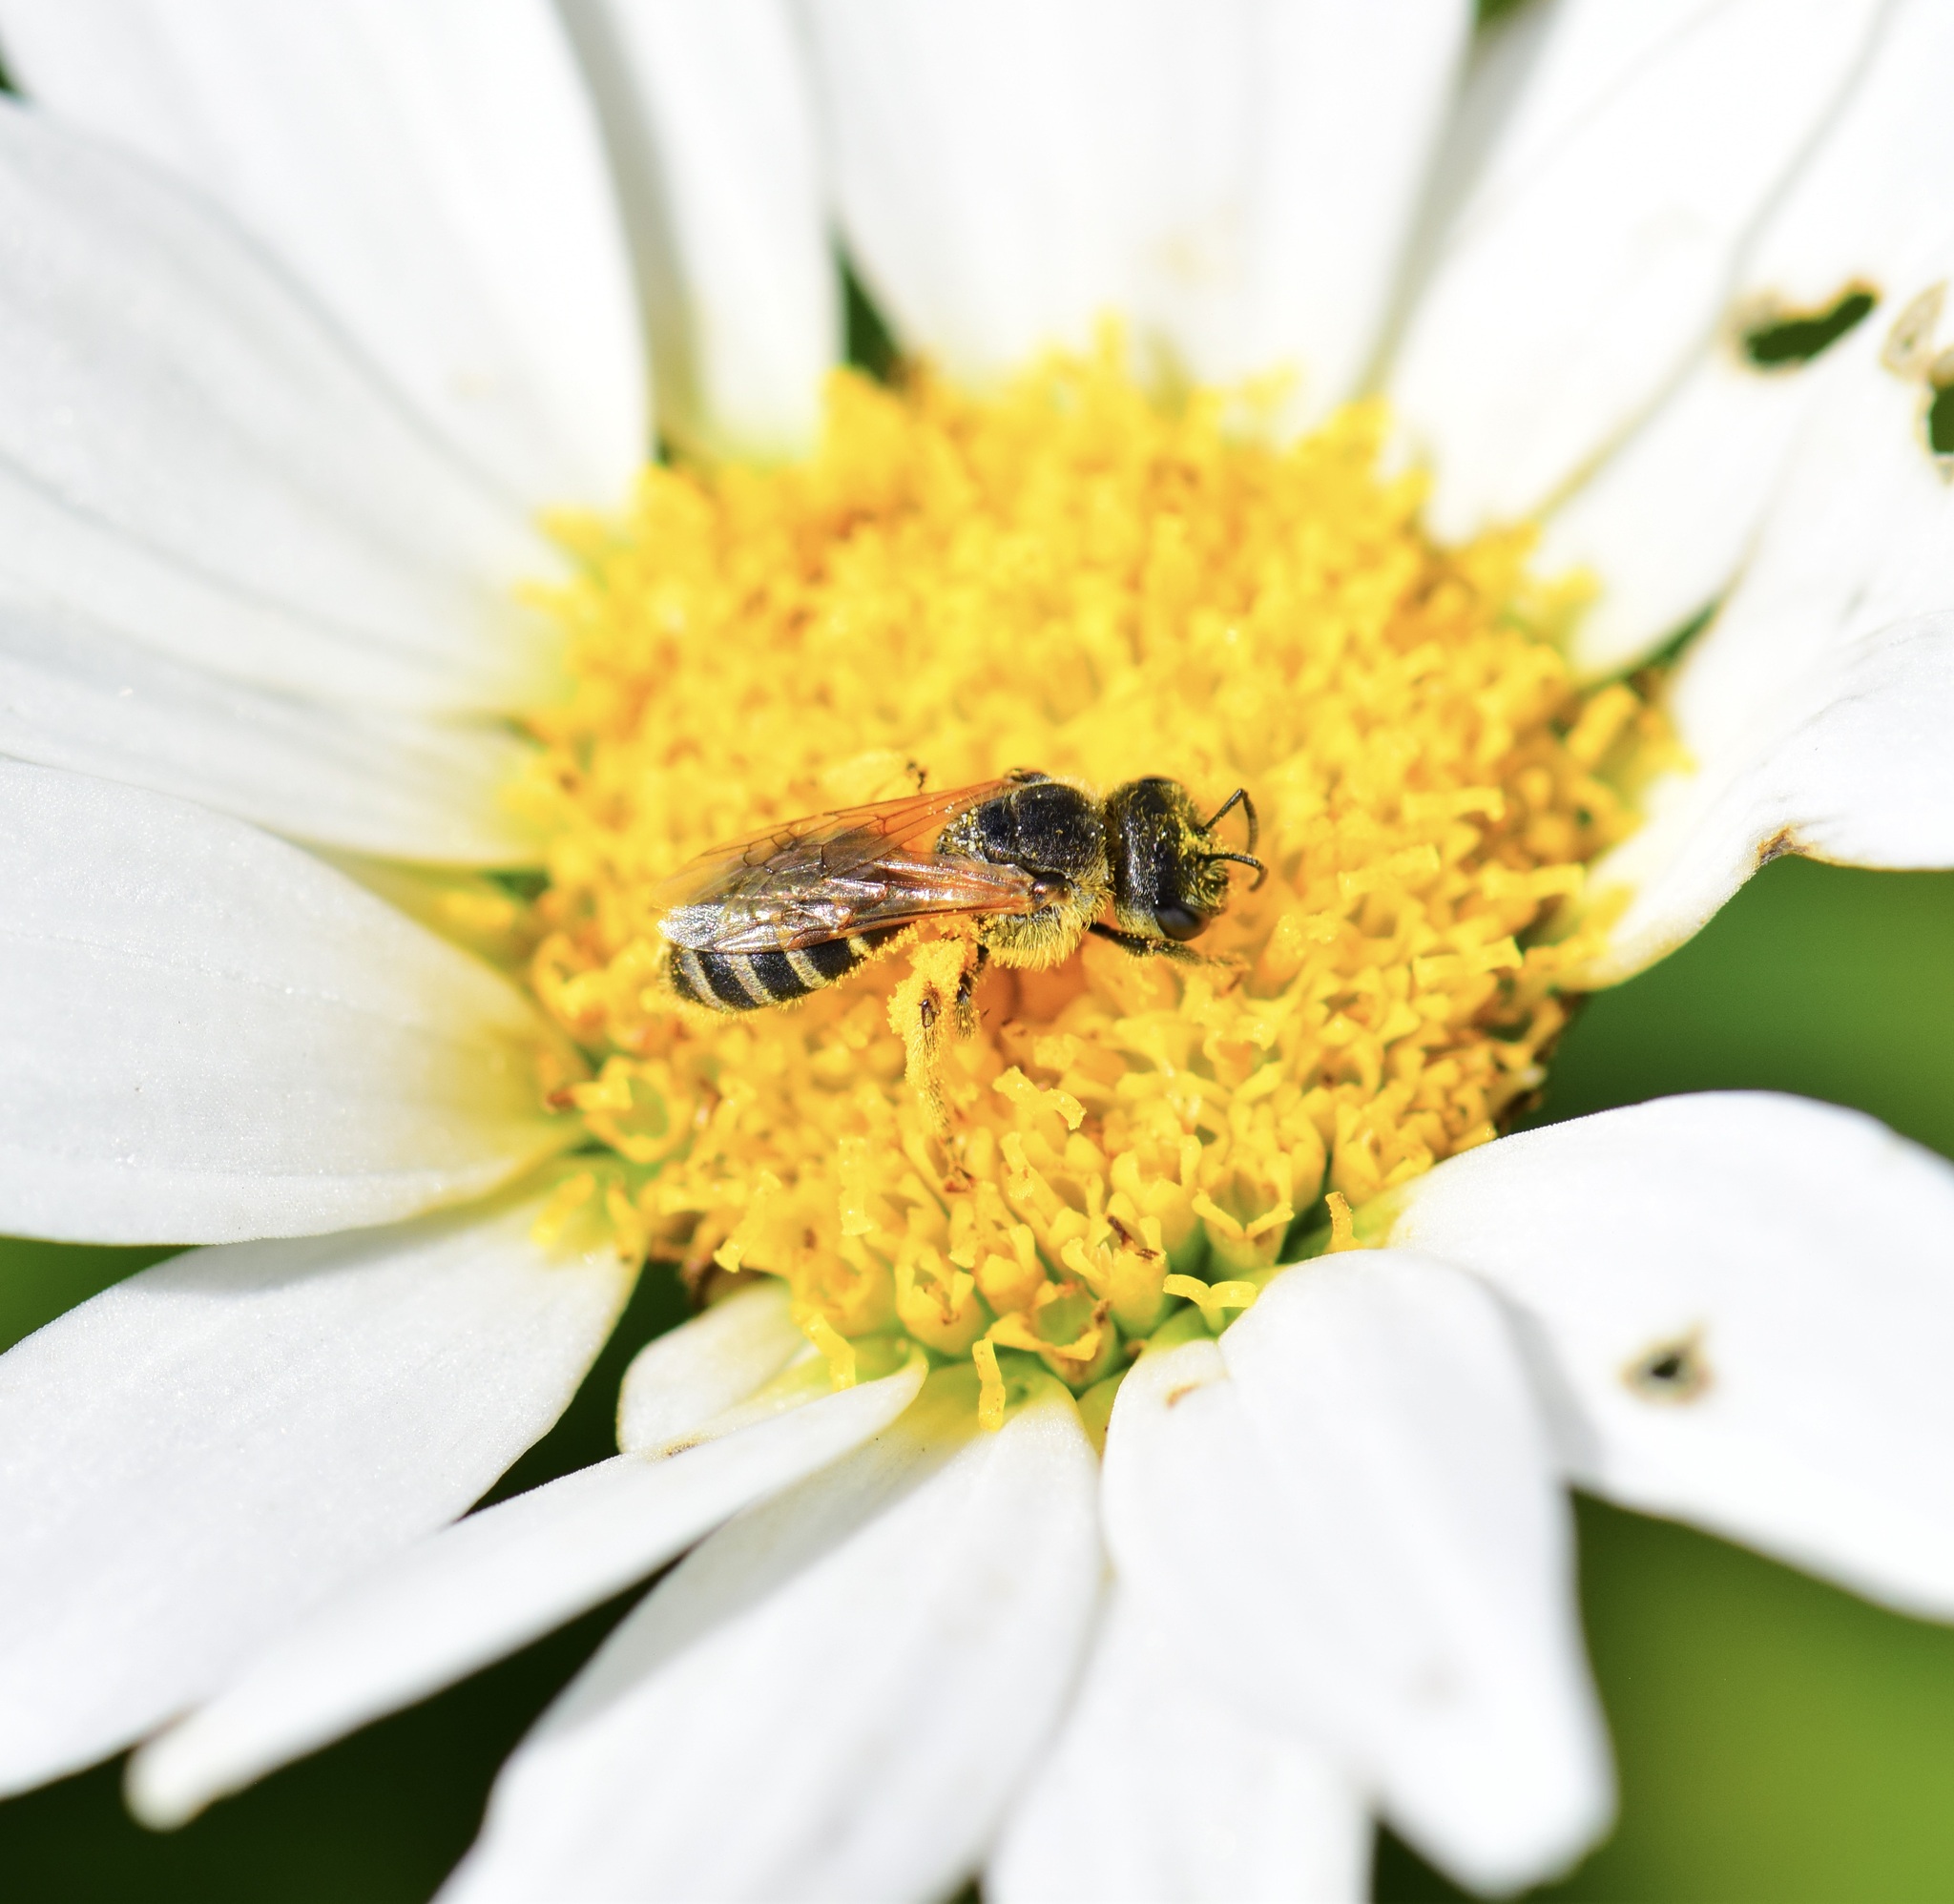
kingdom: Animalia
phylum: Arthropoda
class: Insecta
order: Hymenoptera
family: Halictidae
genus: Halictus
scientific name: Halictus ligatus
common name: Ligated furrow bee
